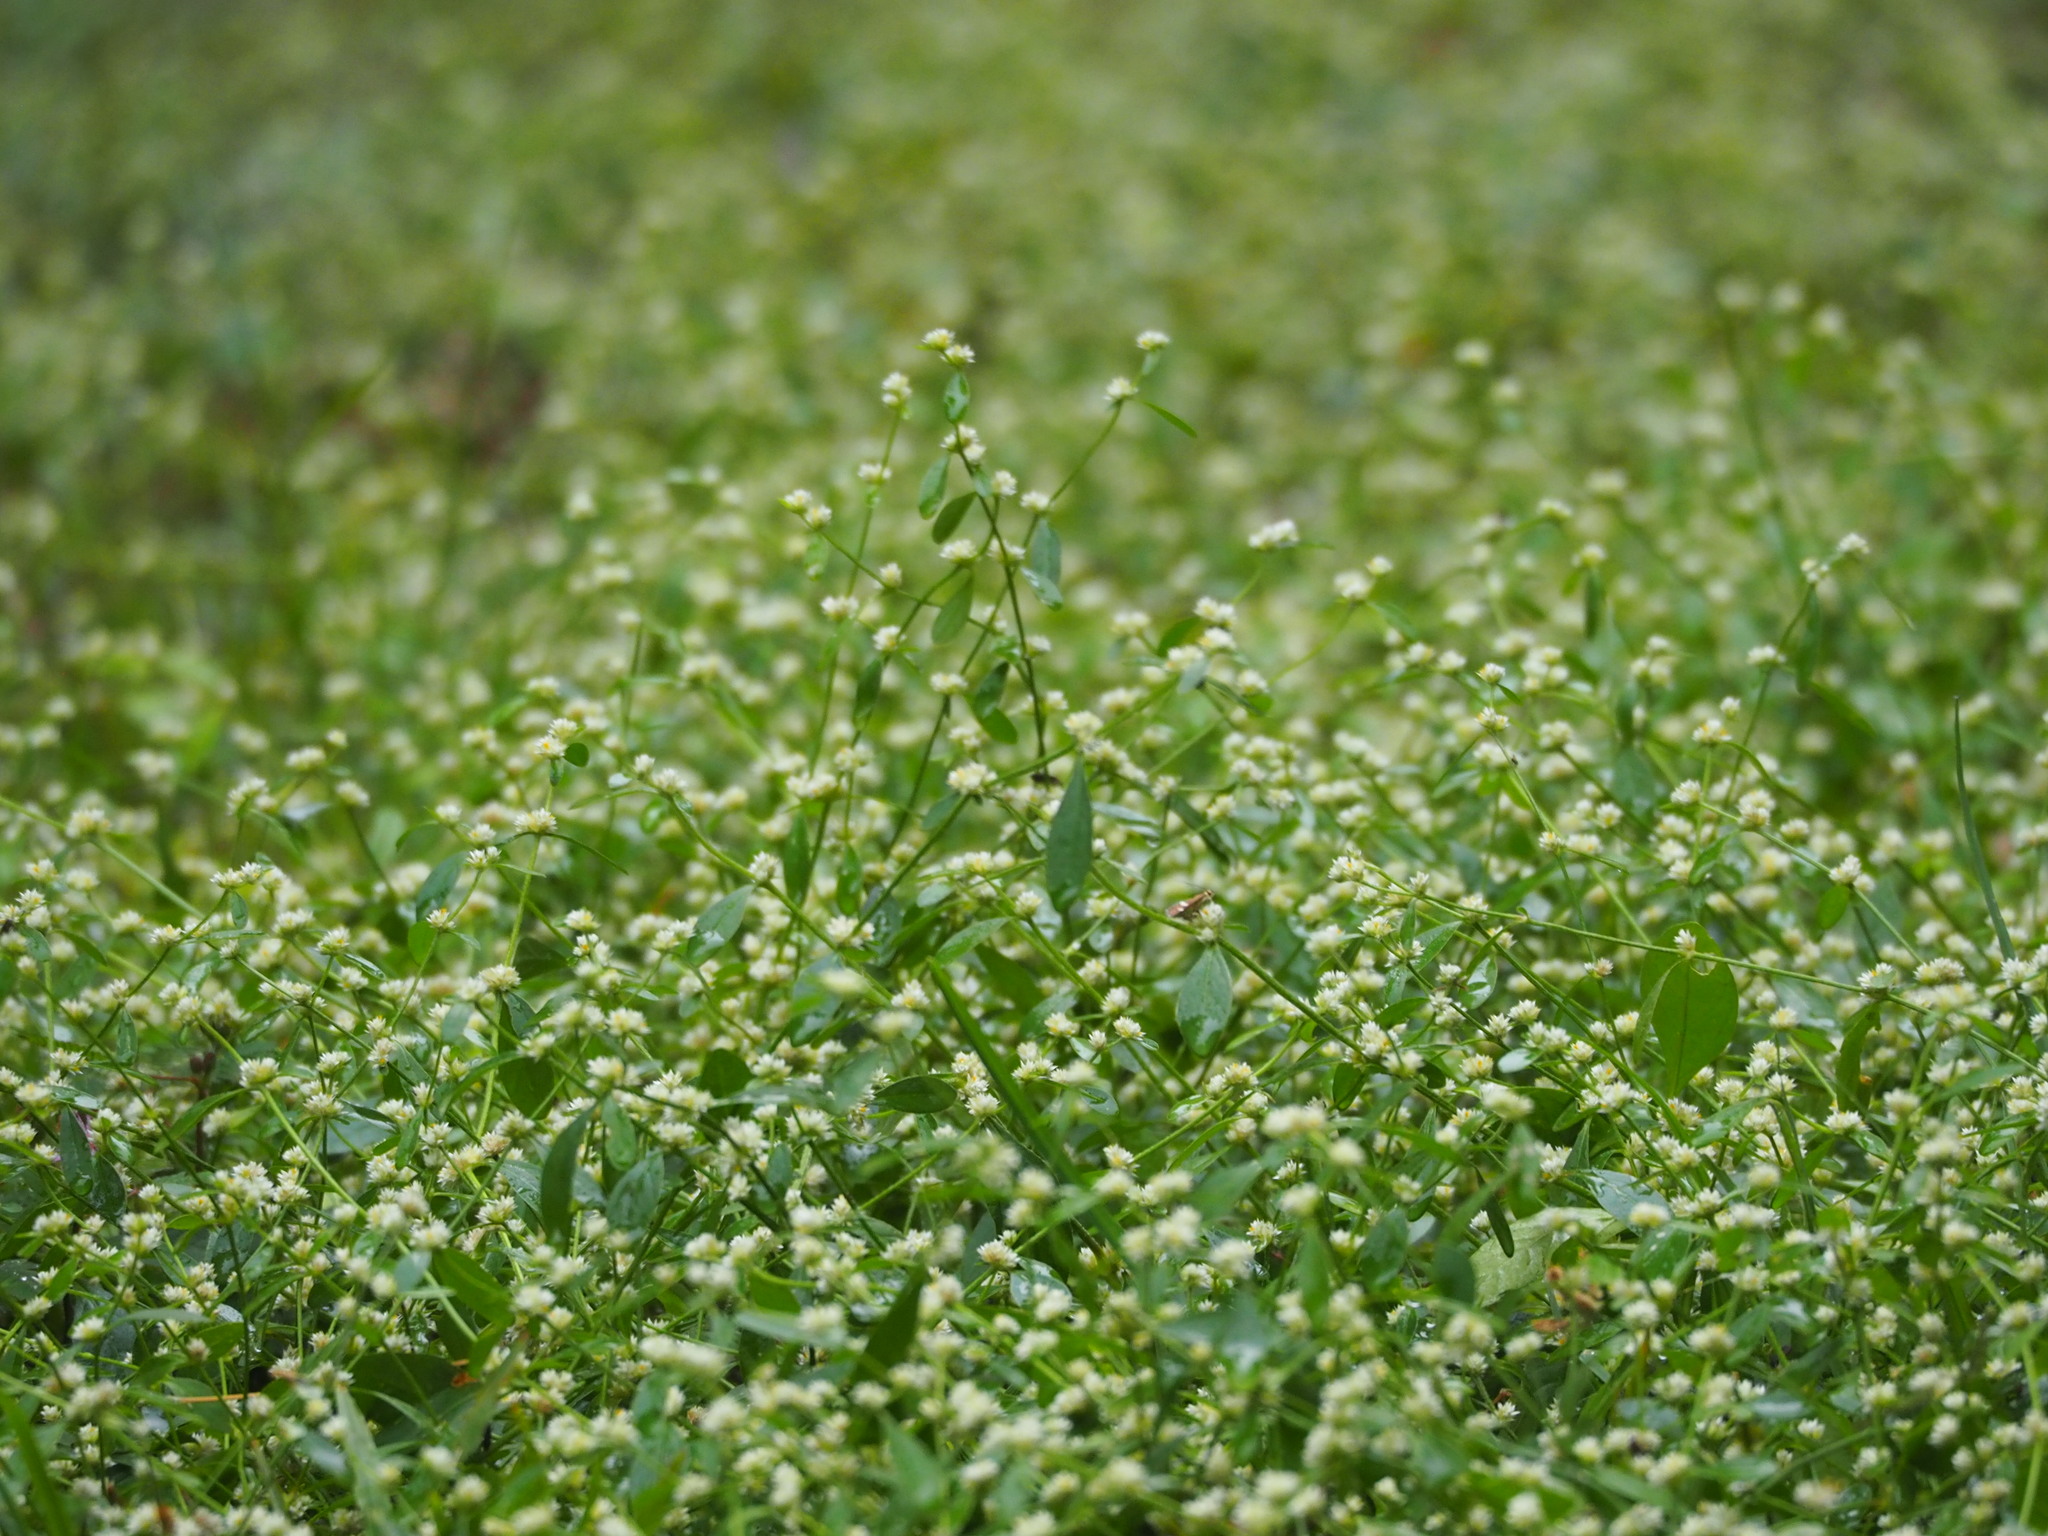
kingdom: Plantae
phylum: Tracheophyta
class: Magnoliopsida
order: Caryophyllales
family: Amaranthaceae
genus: Alternanthera
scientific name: Alternanthera bettzickiana
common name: Calico-plant
